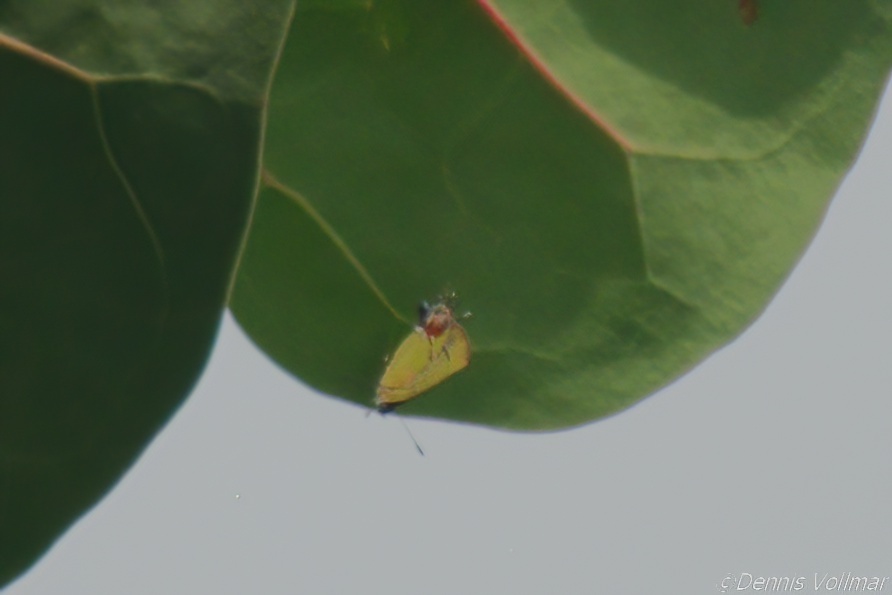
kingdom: Animalia
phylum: Arthropoda
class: Insecta
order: Lepidoptera
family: Lycaenidae
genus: Thecla
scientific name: Thecla maesites
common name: Verde azul hairstreak
